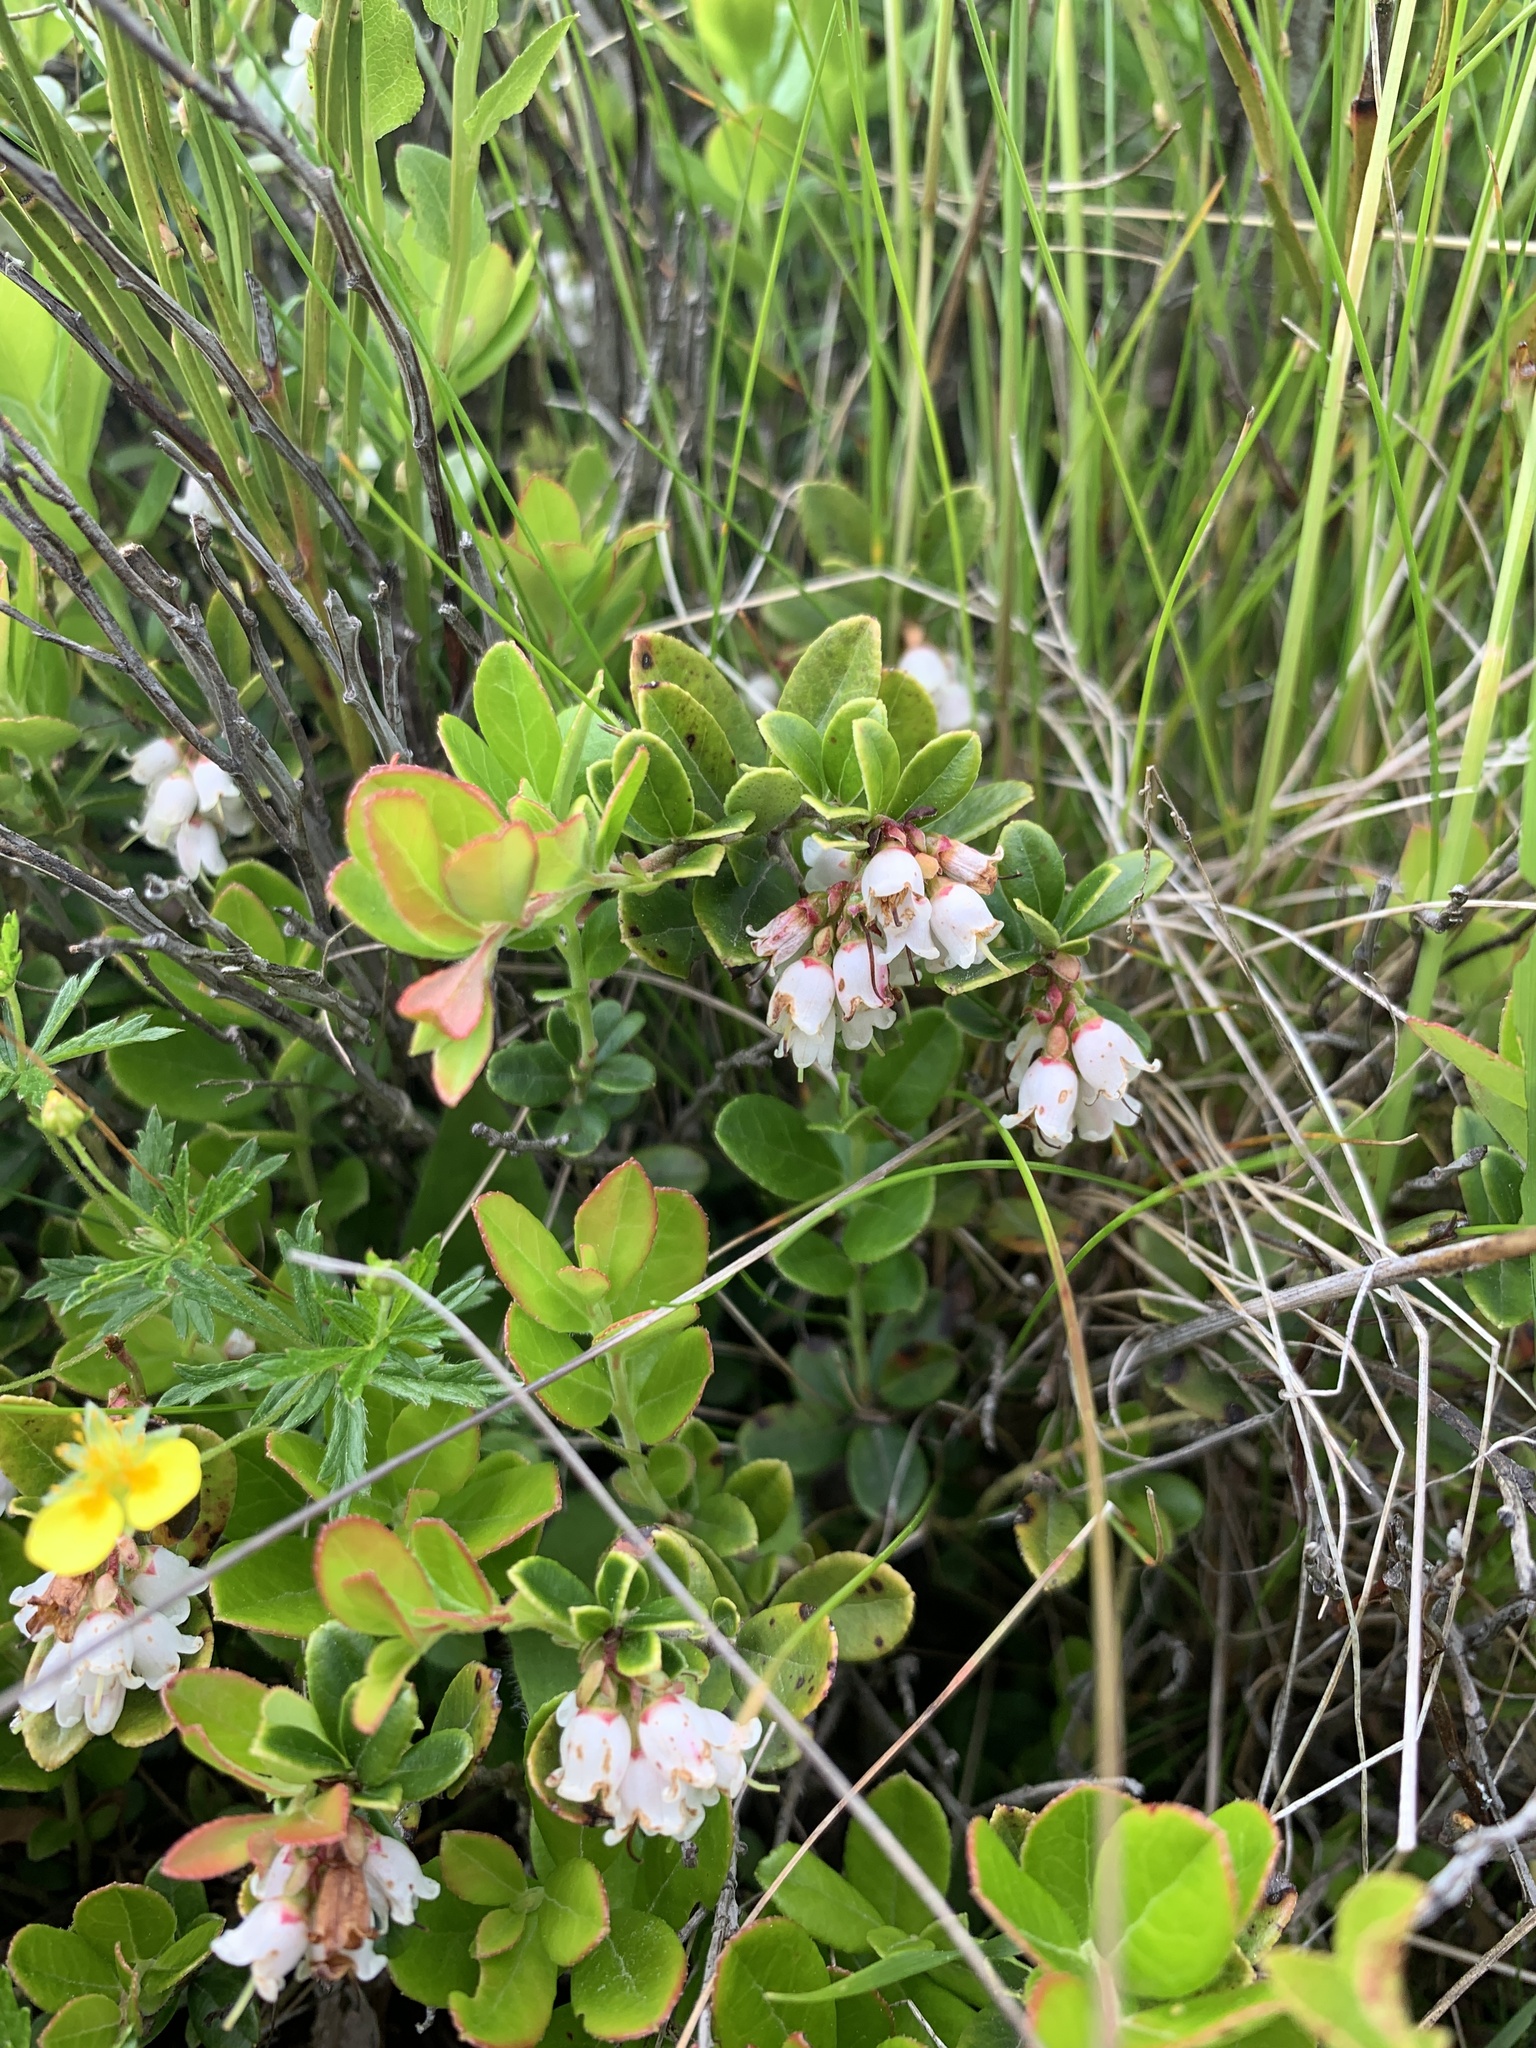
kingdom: Plantae
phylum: Tracheophyta
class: Magnoliopsida
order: Ericales
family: Ericaceae
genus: Vaccinium
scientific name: Vaccinium vitis-idaea
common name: Cowberry
